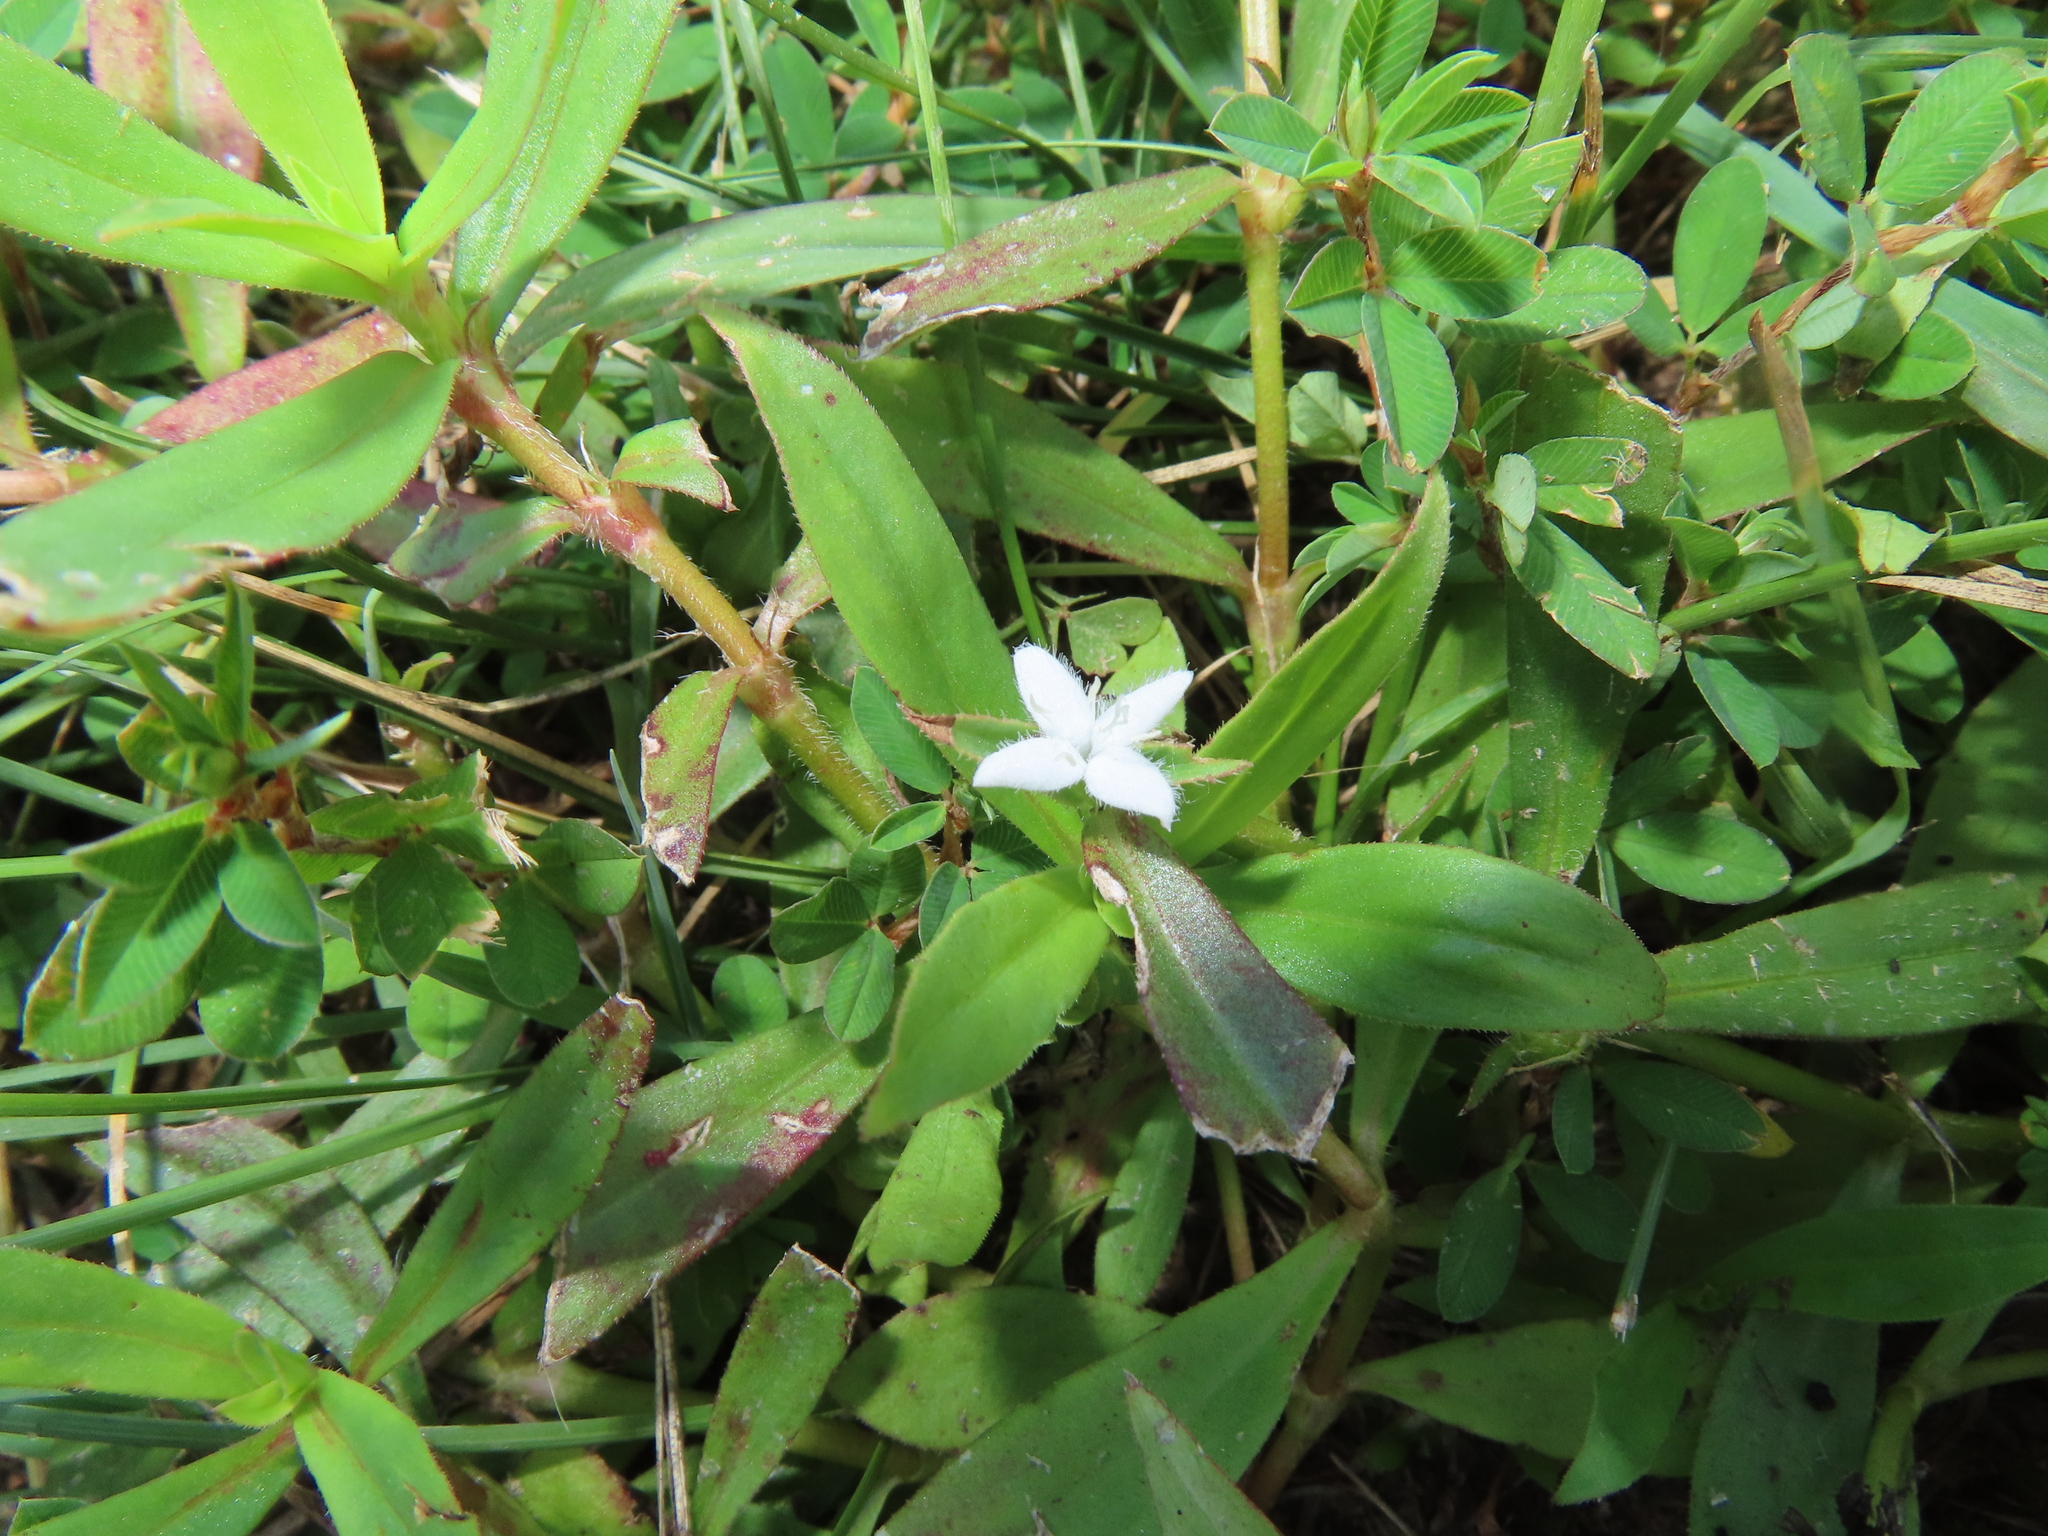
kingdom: Plantae
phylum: Tracheophyta
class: Magnoliopsida
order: Gentianales
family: Rubiaceae
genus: Diodia
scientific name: Diodia virginiana
